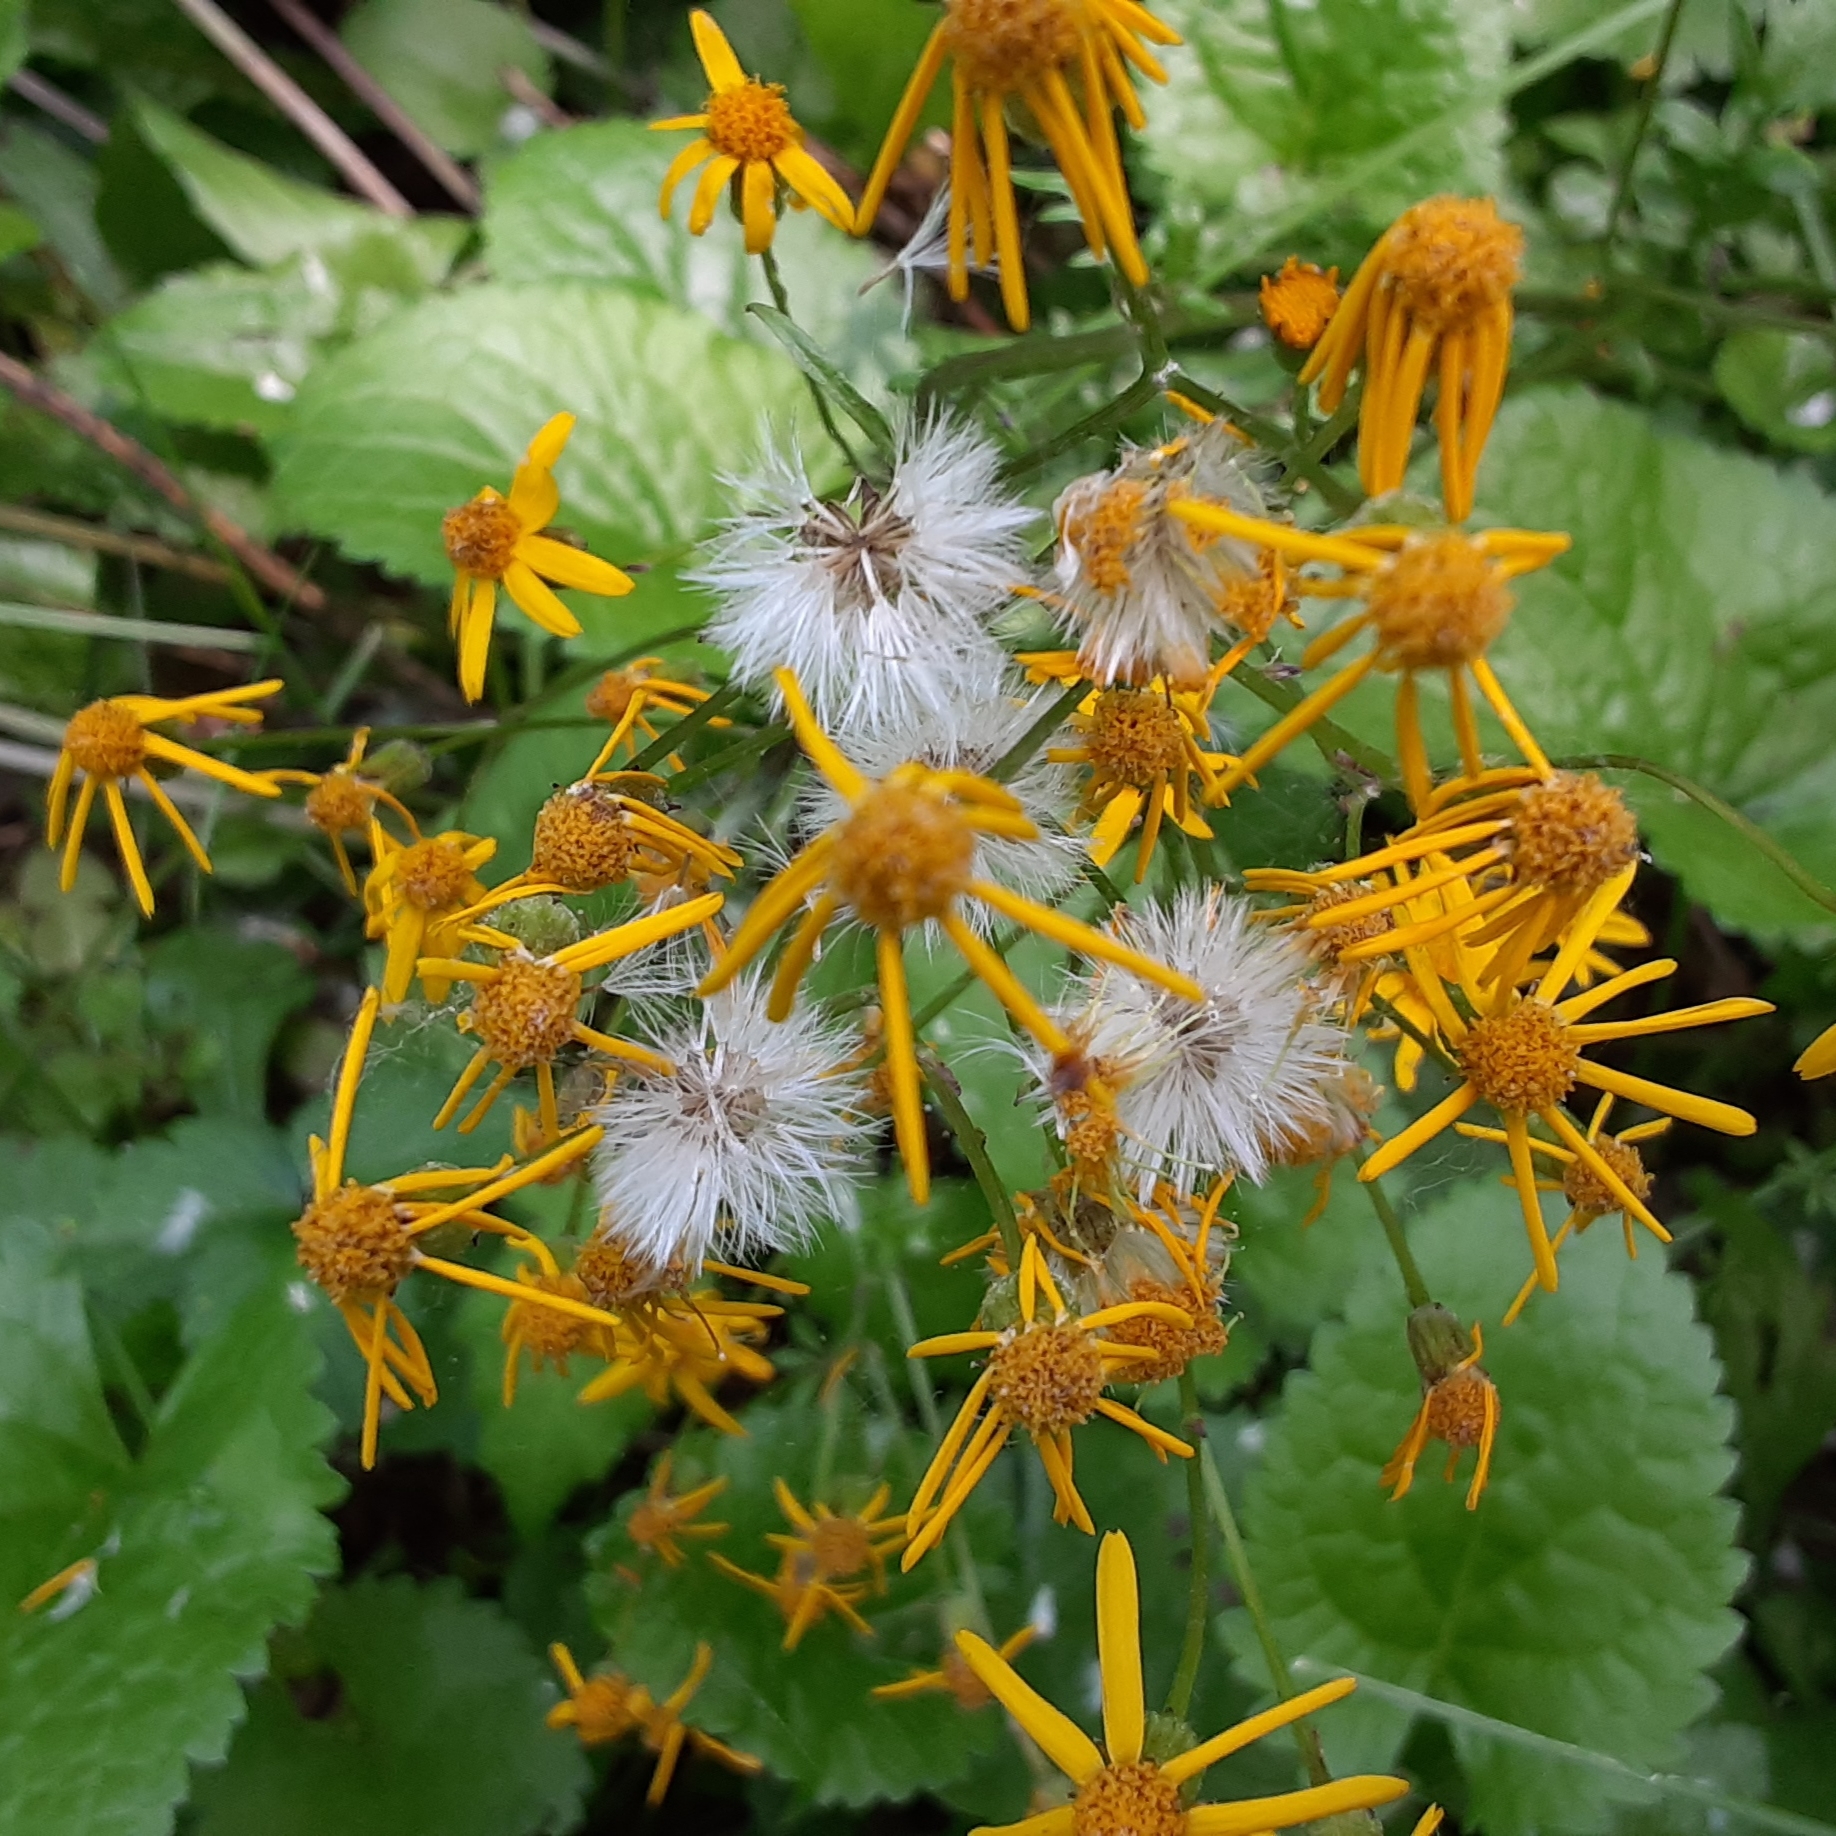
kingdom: Plantae
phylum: Tracheophyta
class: Magnoliopsida
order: Asterales
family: Asteraceae
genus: Packera
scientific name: Packera aurea
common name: Golden groundsel
